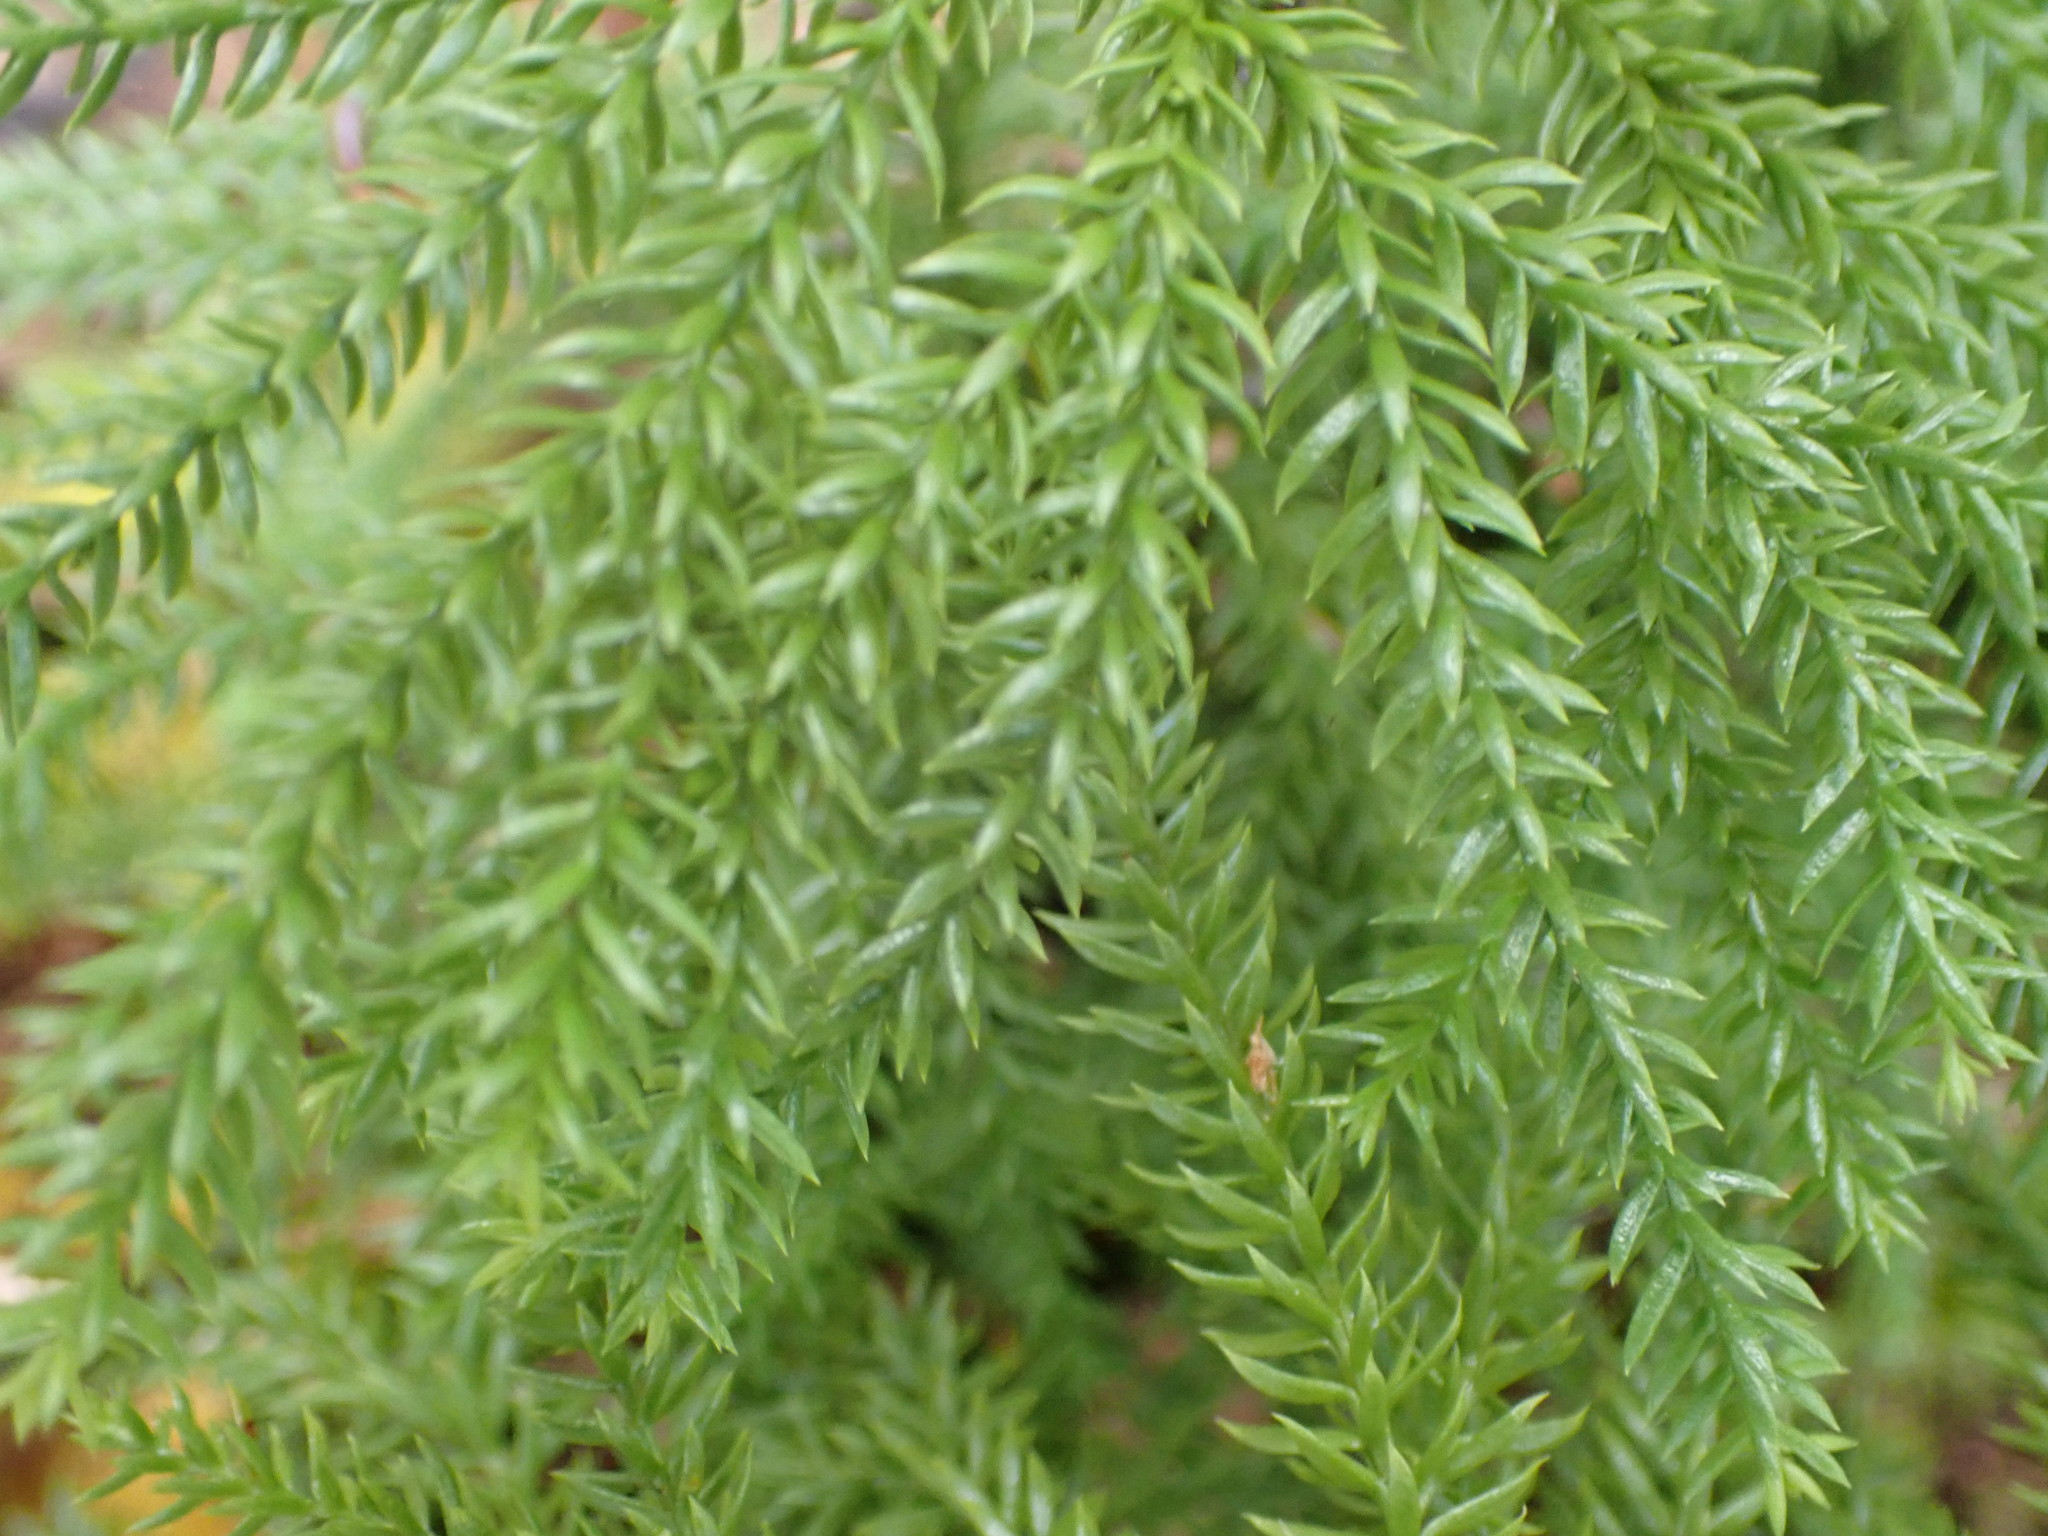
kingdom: Plantae
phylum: Tracheophyta
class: Lycopodiopsida
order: Lycopodiales
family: Lycopodiaceae
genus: Dendrolycopodium
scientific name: Dendrolycopodium dendroideum
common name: Northern tree-clubmoss
